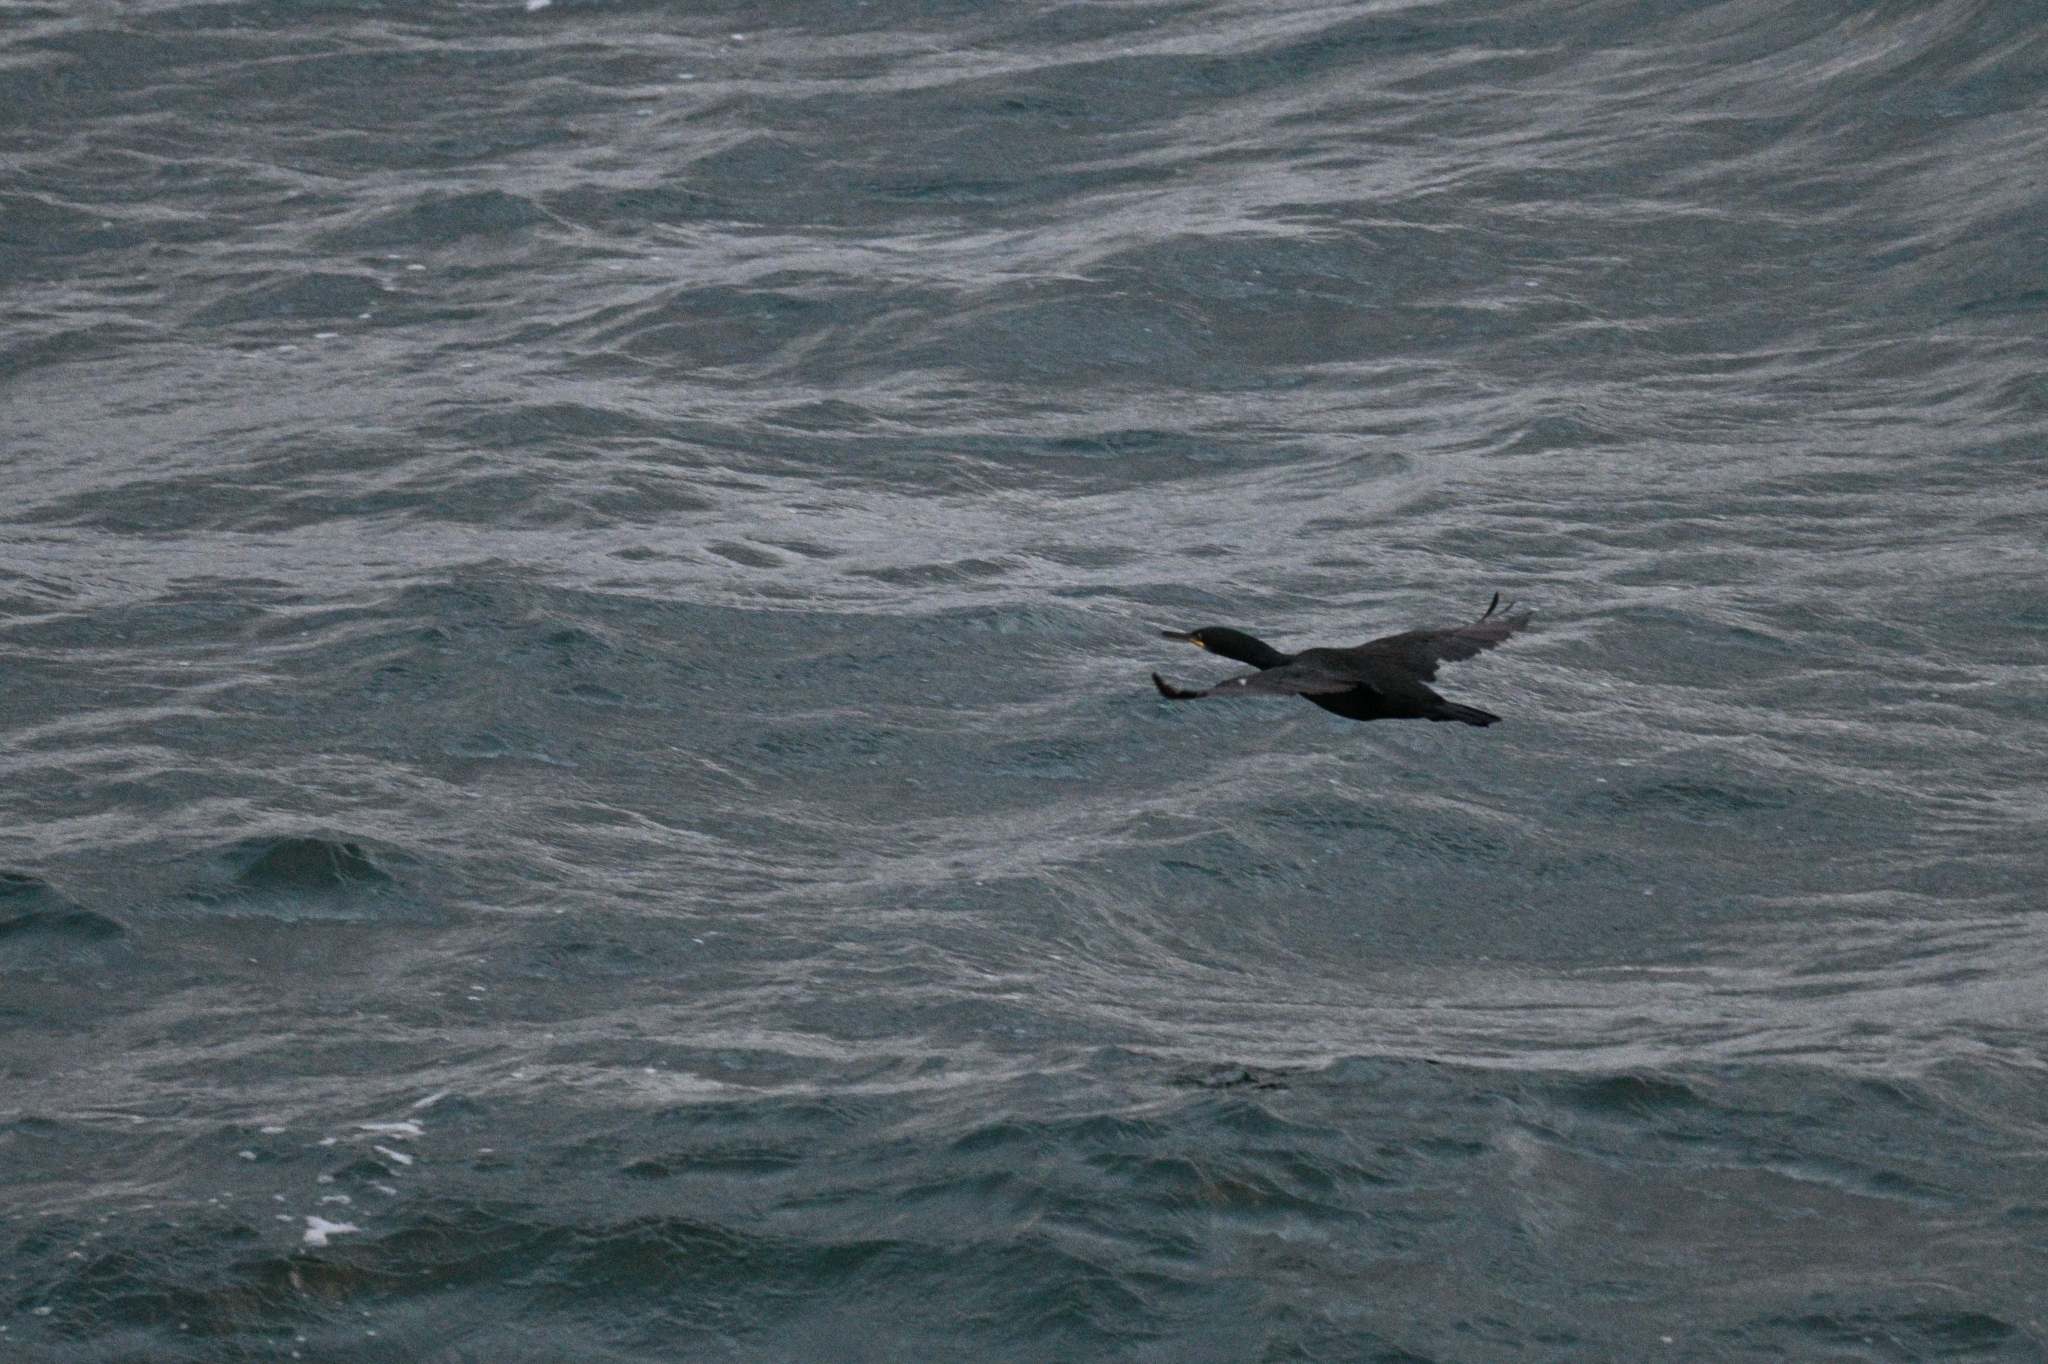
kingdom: Animalia
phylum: Chordata
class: Aves
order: Suliformes
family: Phalacrocoracidae
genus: Phalacrocorax
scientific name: Phalacrocorax aristotelis
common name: European shag
